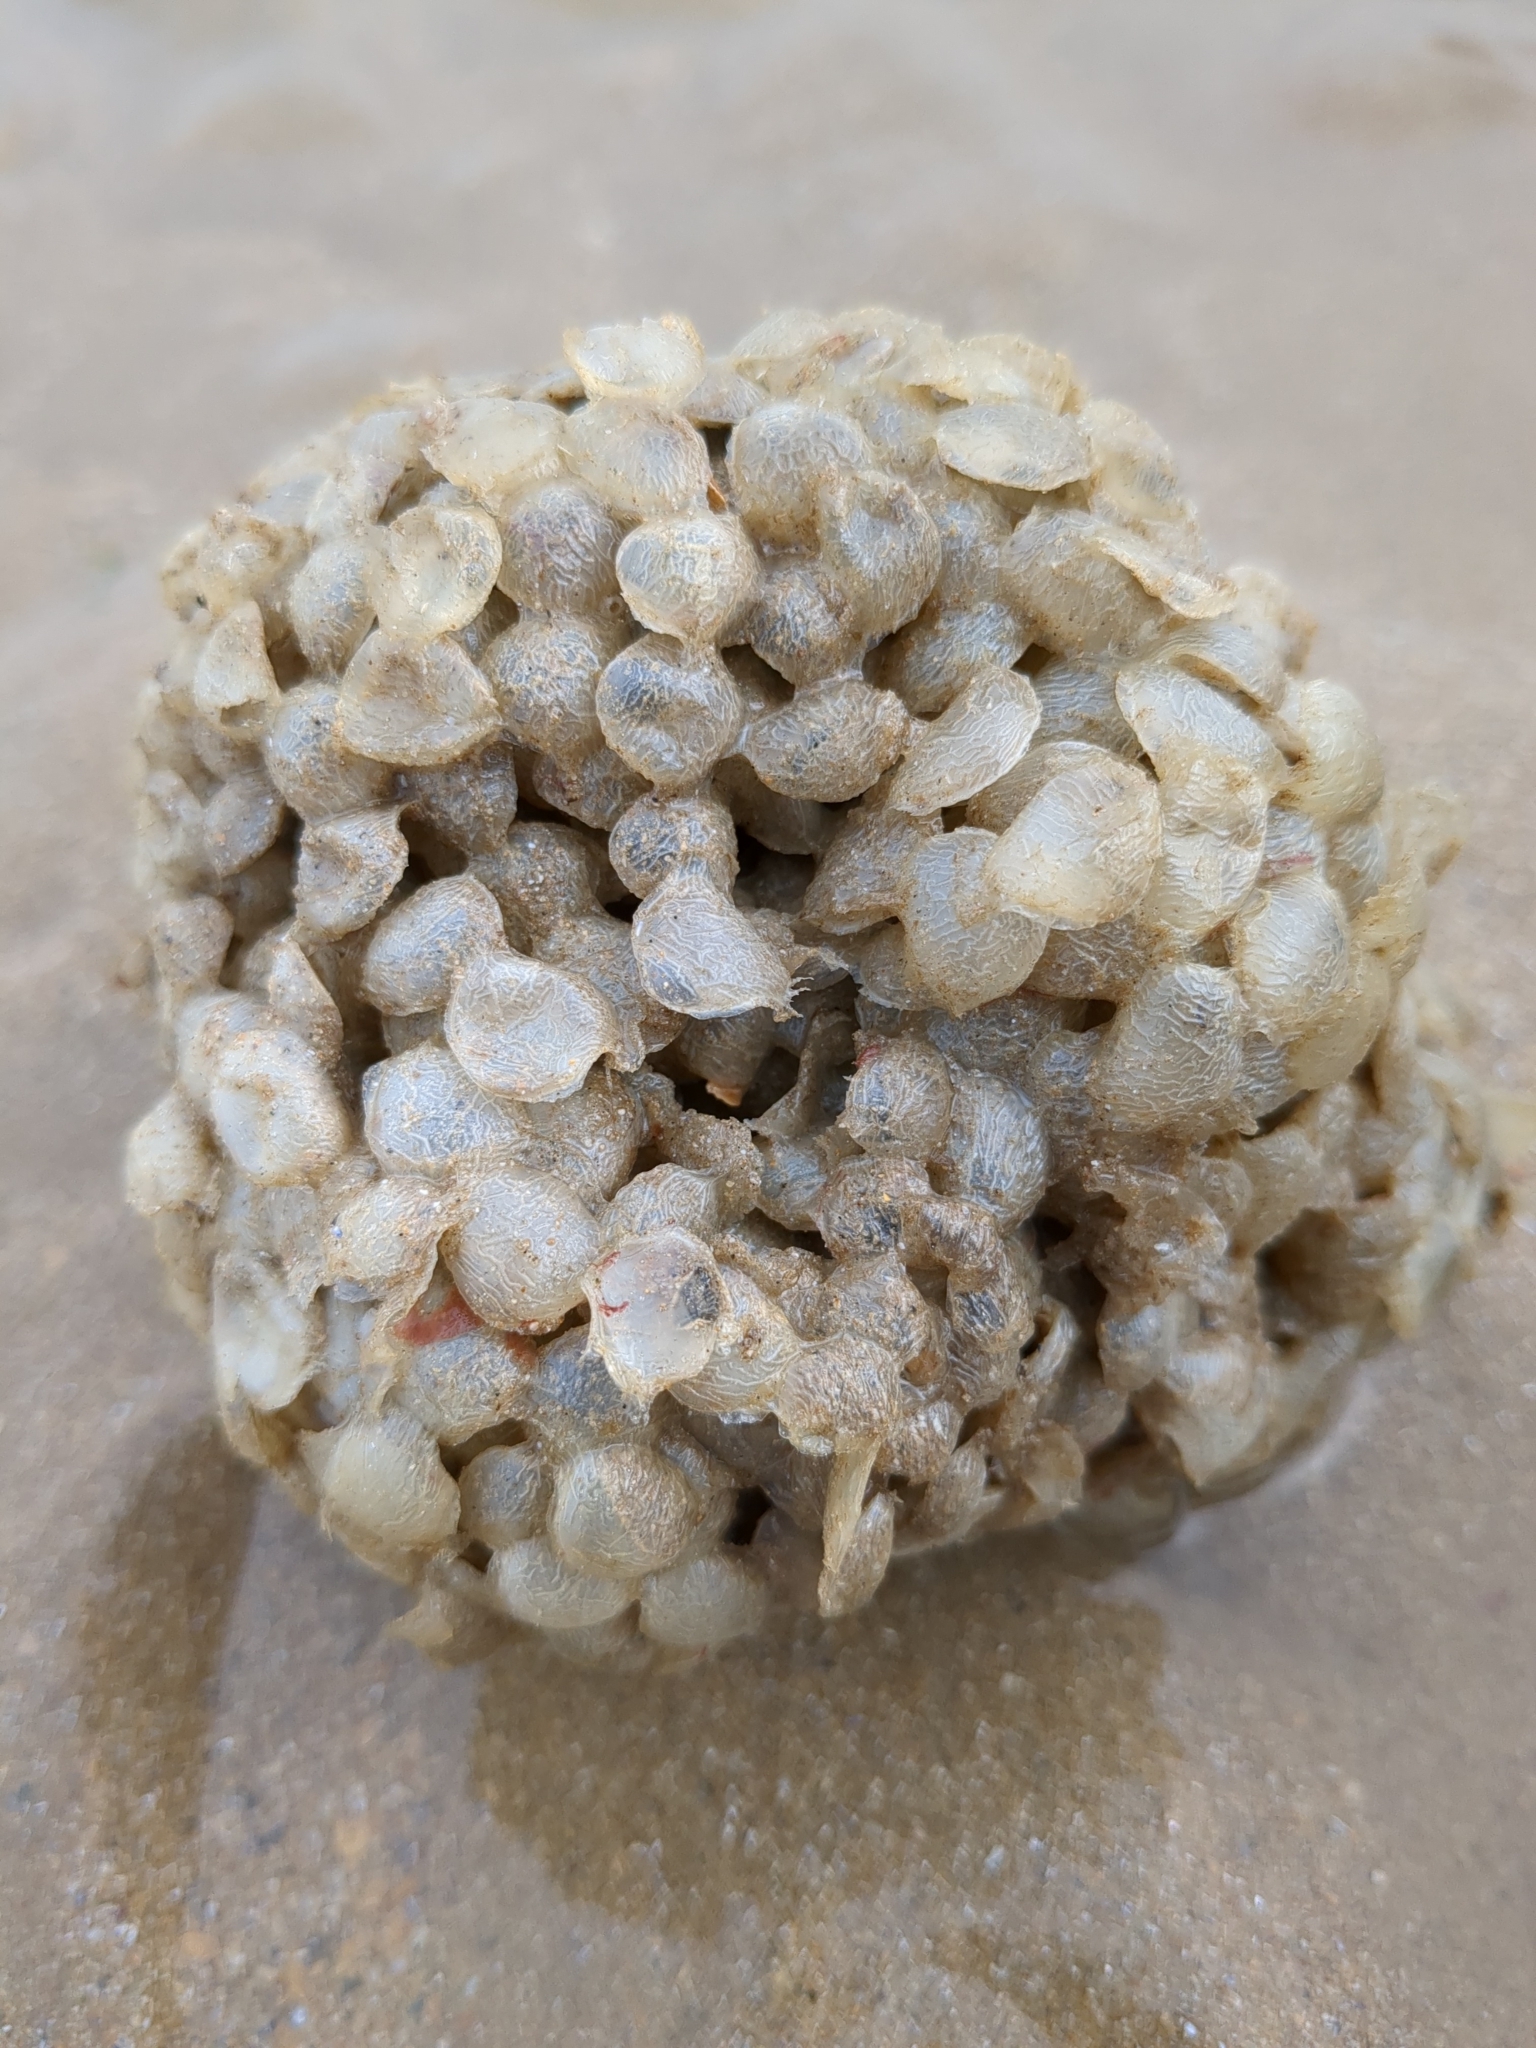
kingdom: Animalia
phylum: Mollusca
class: Gastropoda
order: Neogastropoda
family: Buccinidae
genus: Buccinum
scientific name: Buccinum undatum
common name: Common whelk
